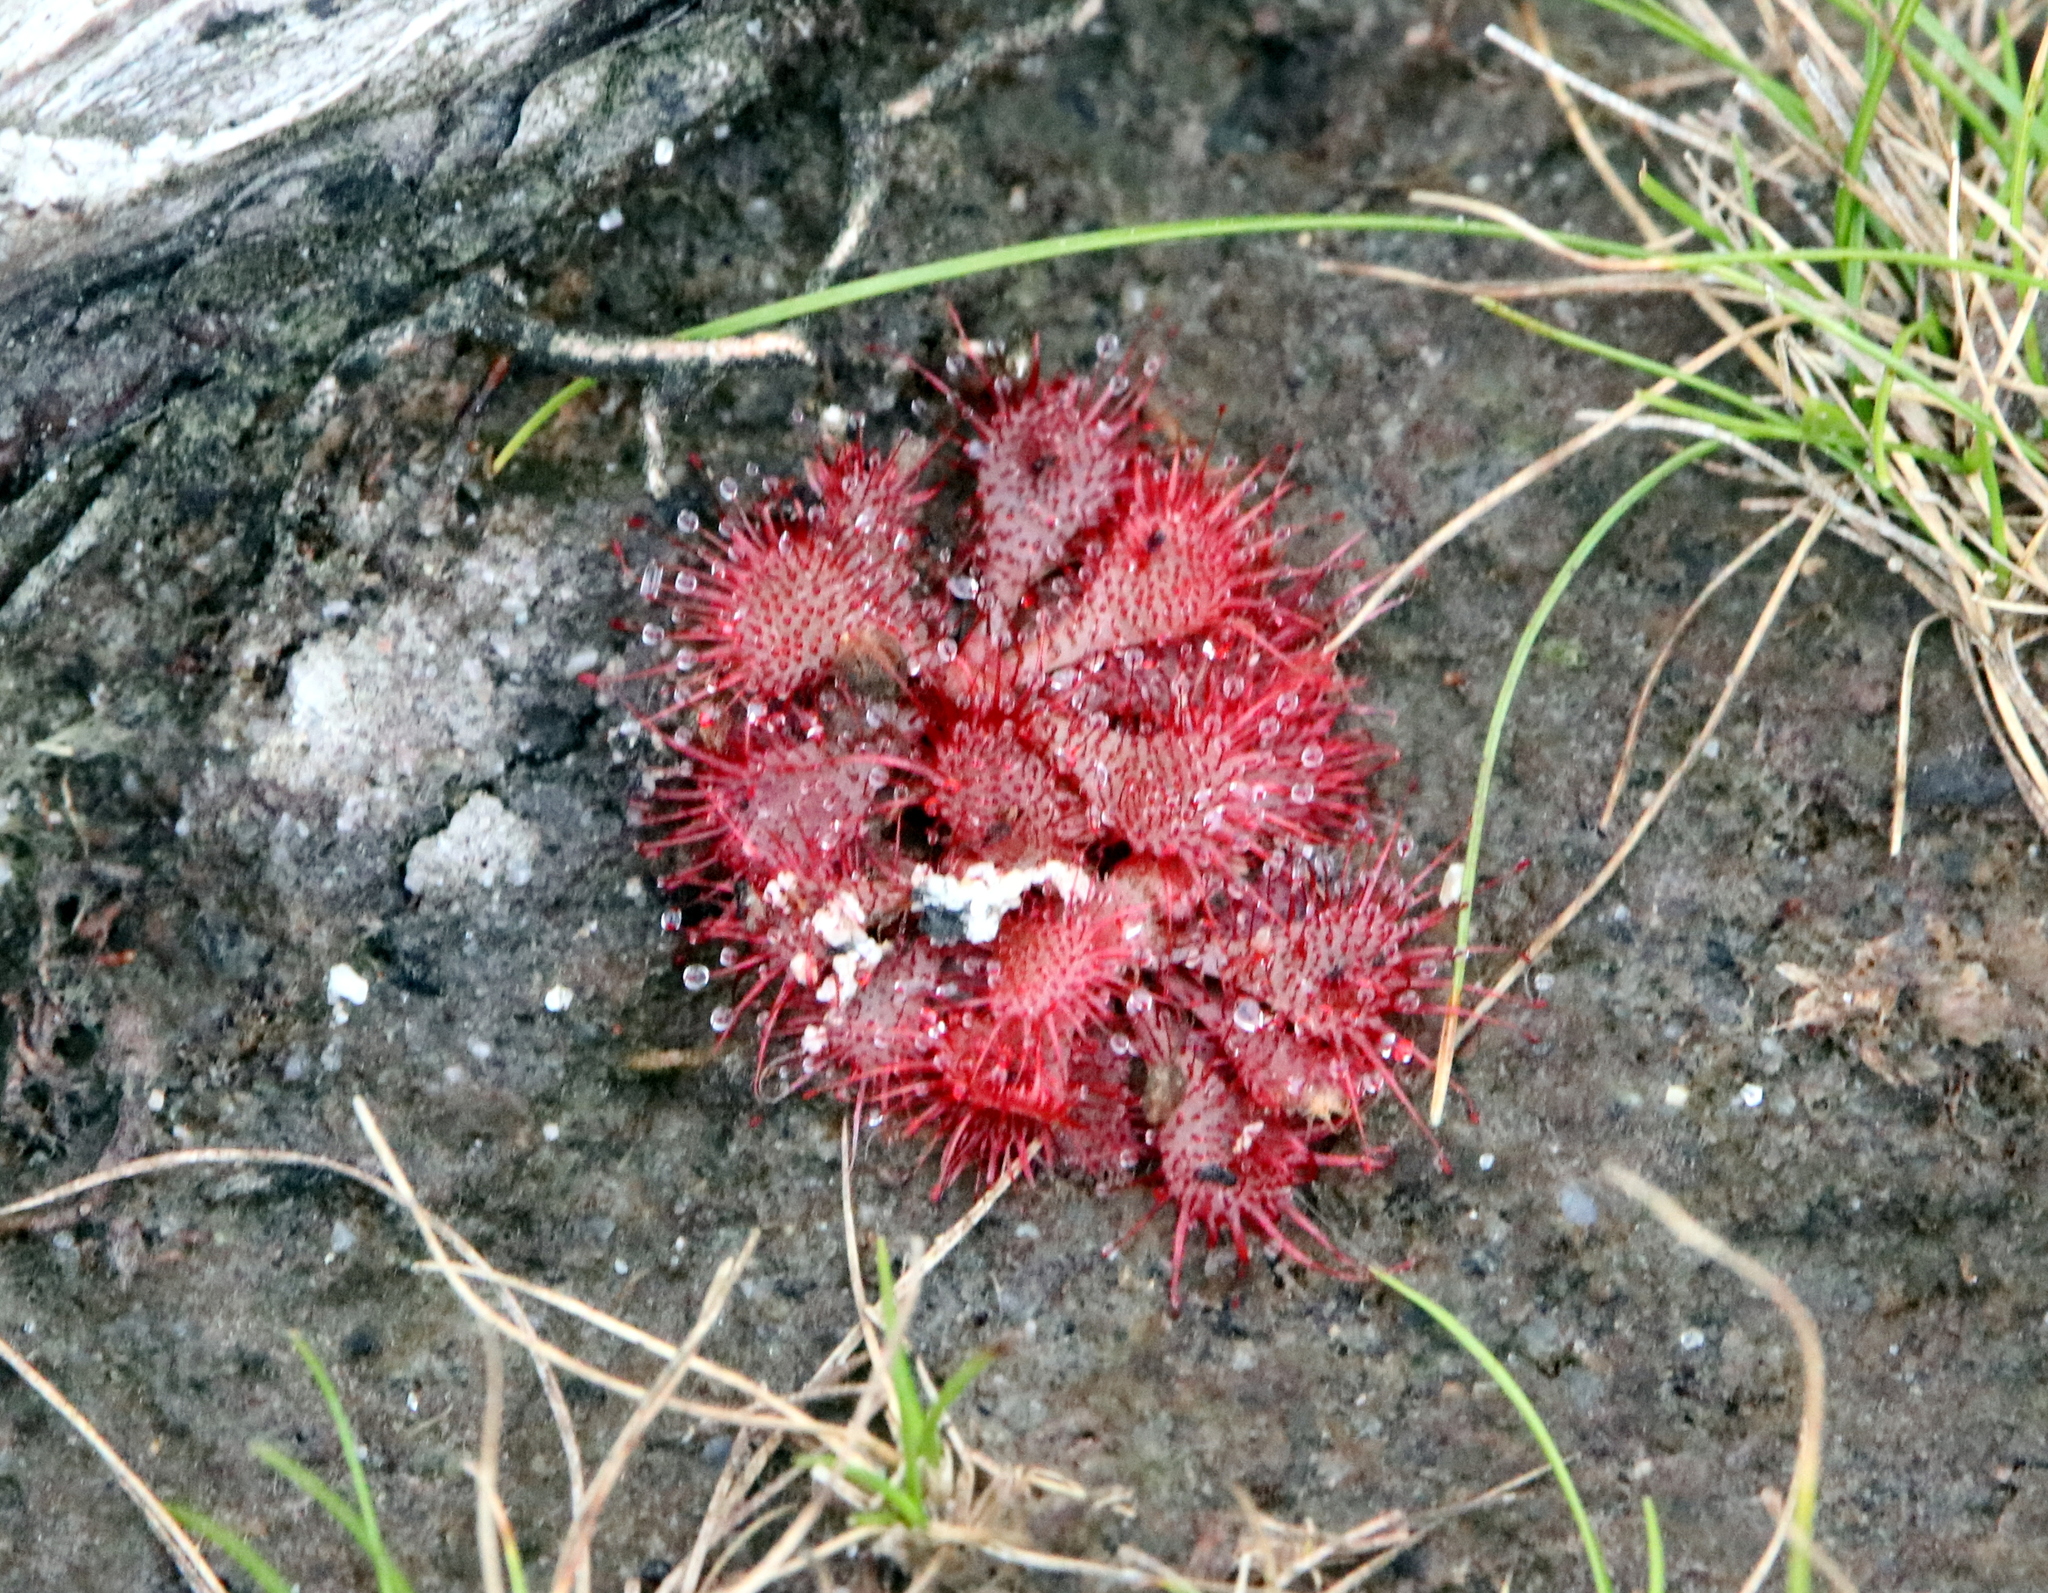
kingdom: Plantae
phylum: Tracheophyta
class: Magnoliopsida
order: Caryophyllales
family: Droseraceae
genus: Drosera
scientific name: Drosera brevifolia
